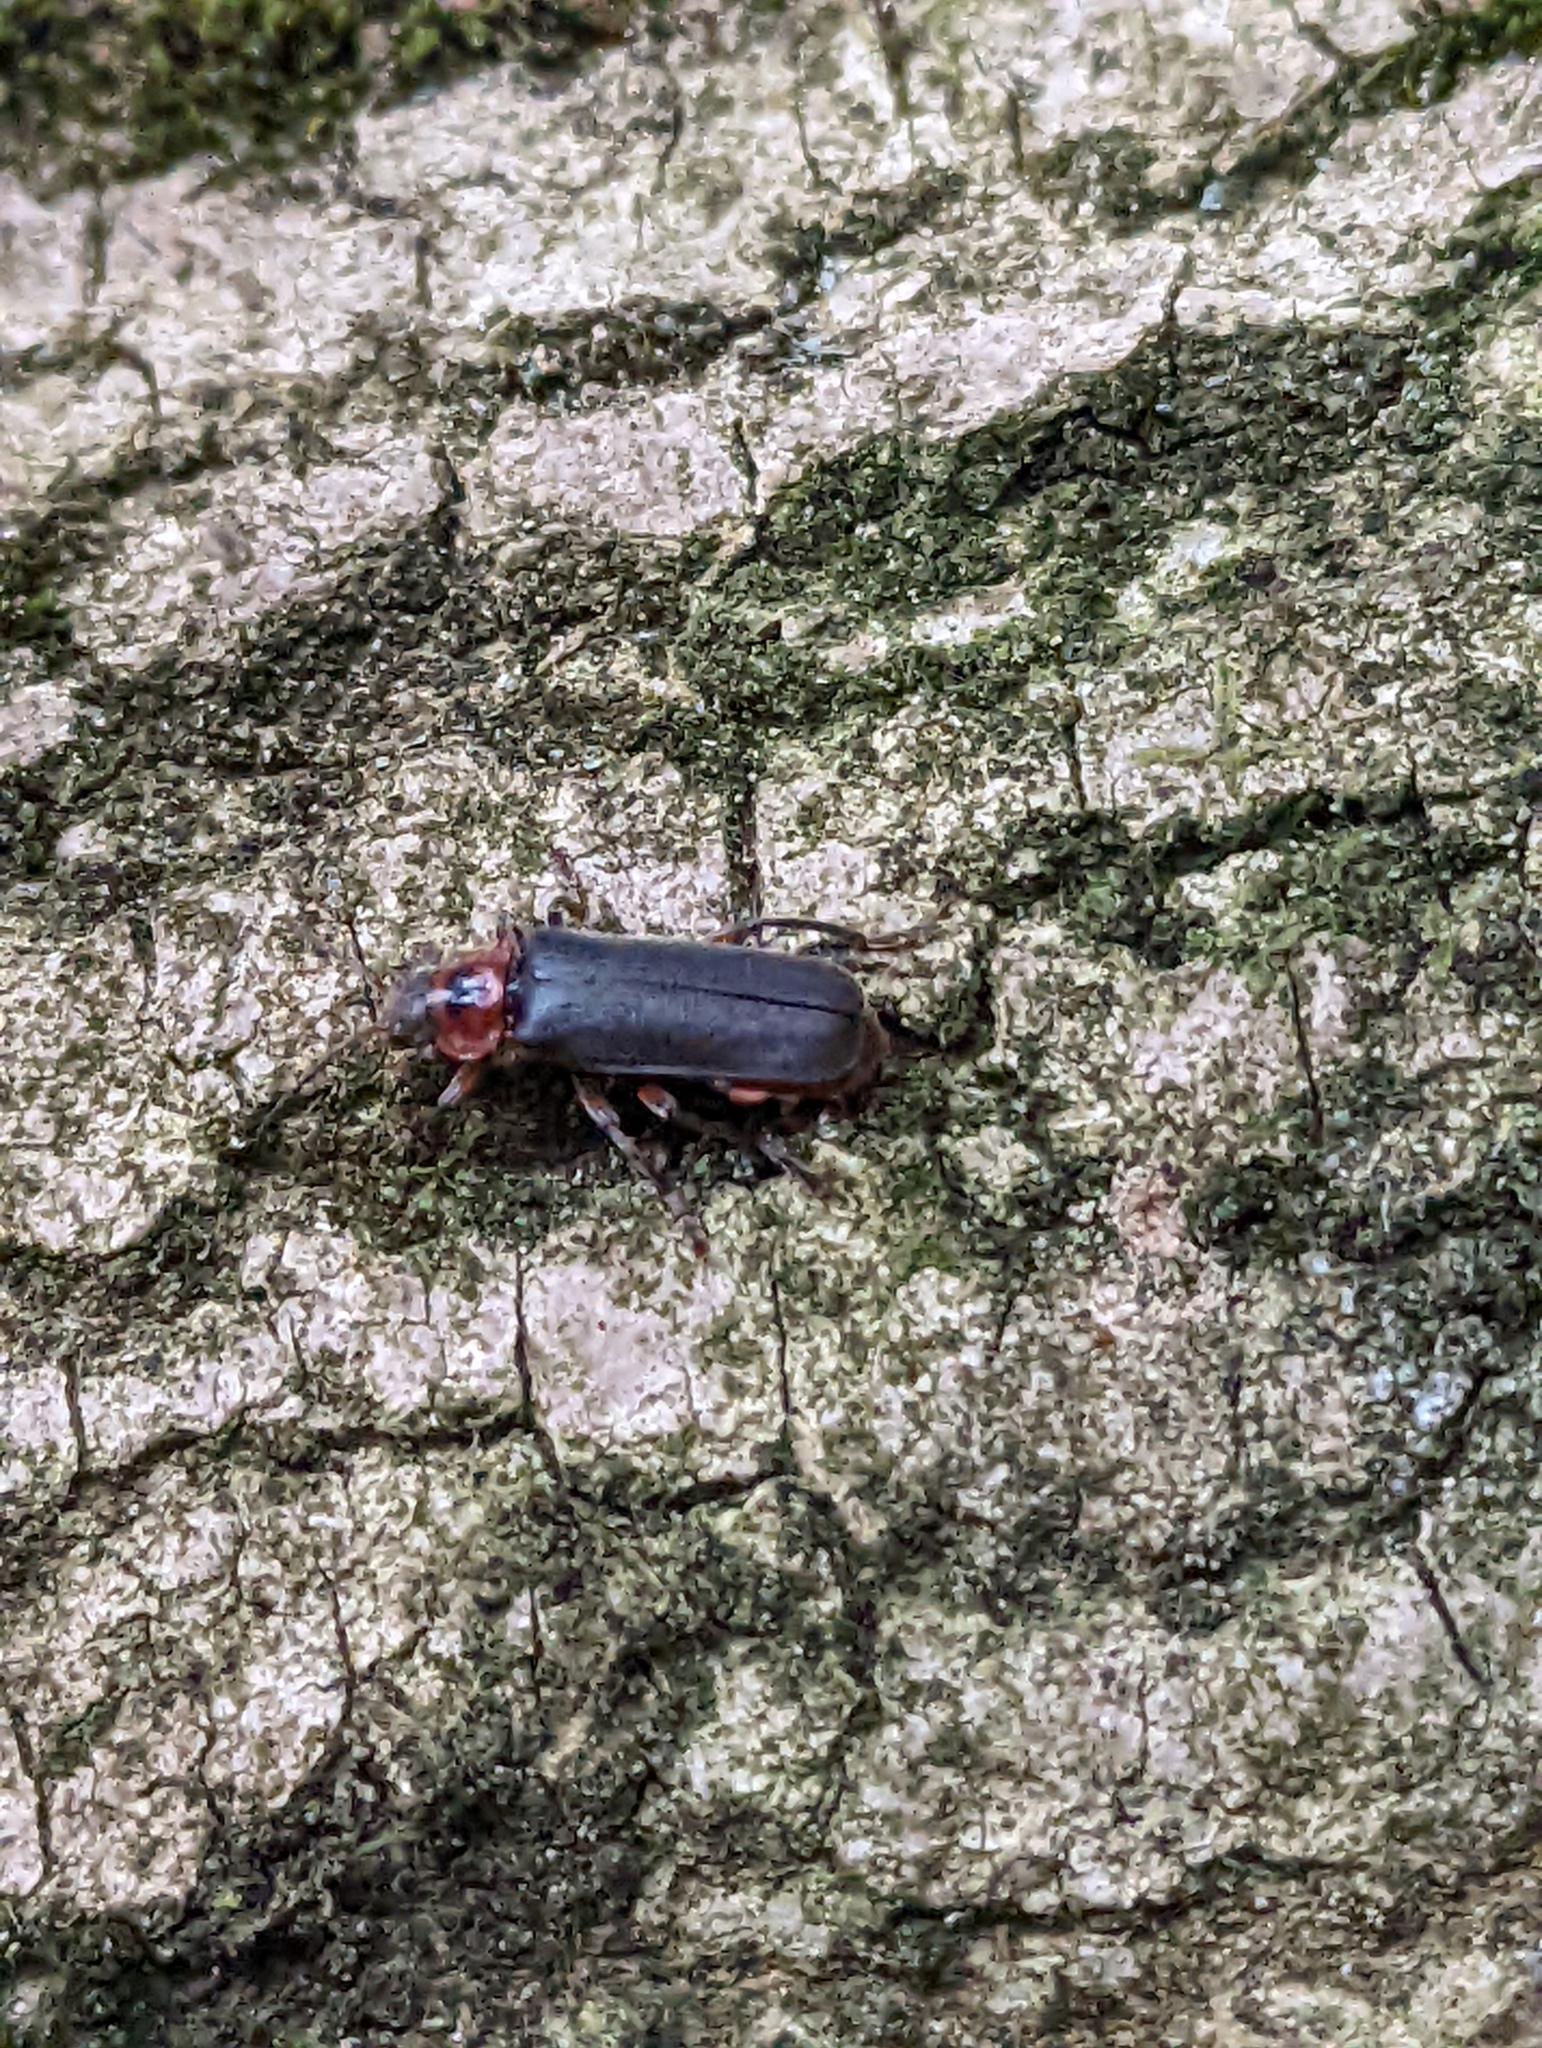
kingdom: Animalia
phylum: Arthropoda
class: Insecta
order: Coleoptera
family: Cantharidae
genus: Cantharis
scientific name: Cantharis rustica
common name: Soldier beetle
